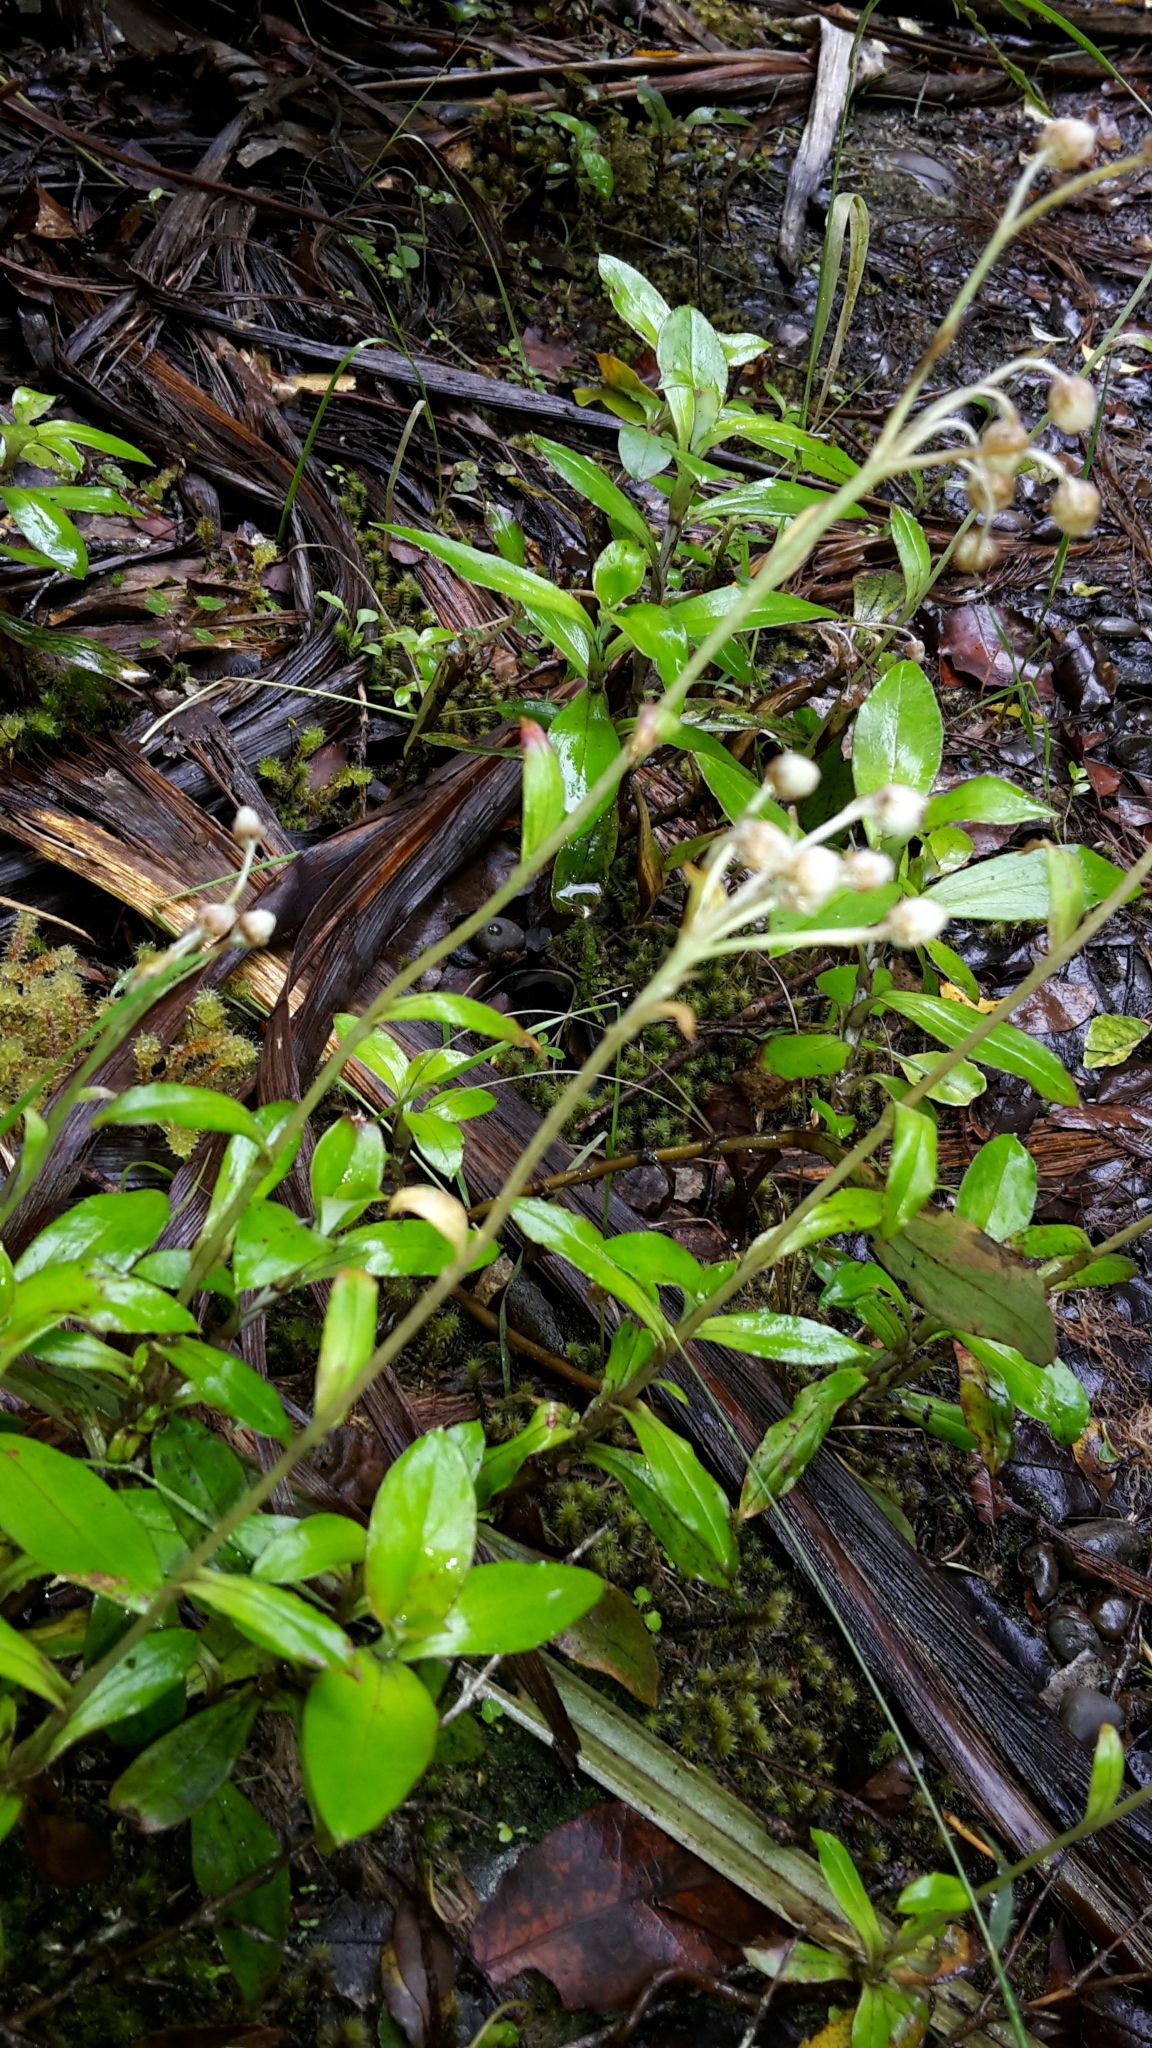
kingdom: Plantae
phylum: Tracheophyta
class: Magnoliopsida
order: Asterales
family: Asteraceae
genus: Anaphalioides
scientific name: Anaphalioides trinervis
